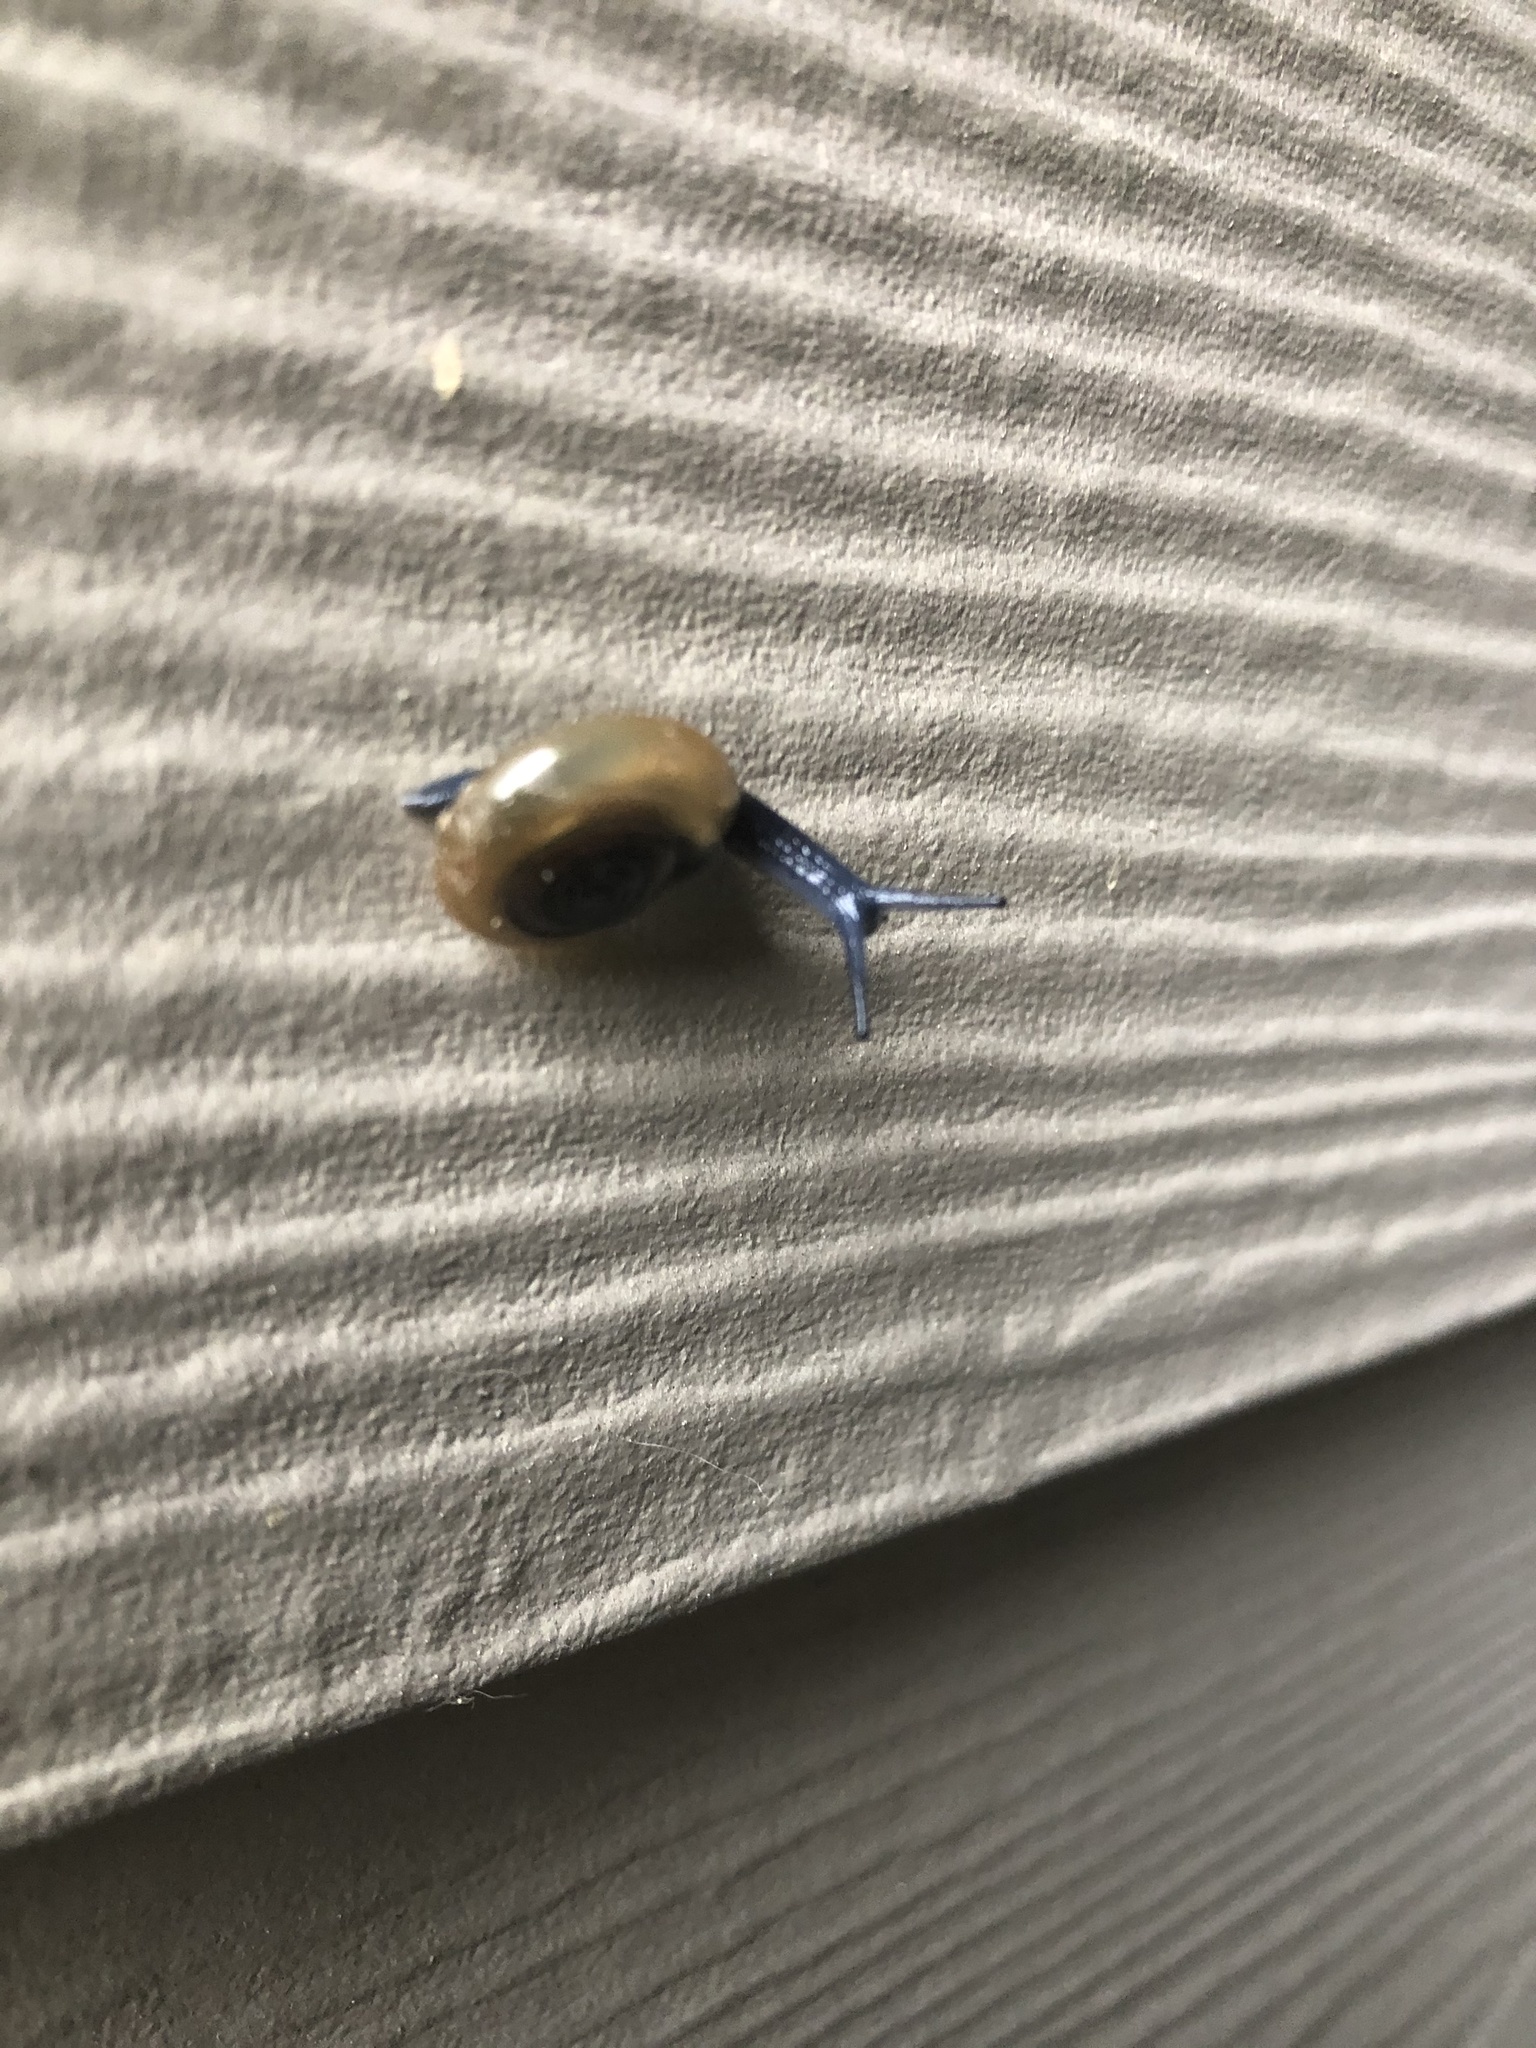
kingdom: Animalia
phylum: Mollusca
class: Gastropoda
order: Stylommatophora
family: Oxychilidae
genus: Oxychilus
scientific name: Oxychilus draparnaudi
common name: Draparnaud's glass snail
